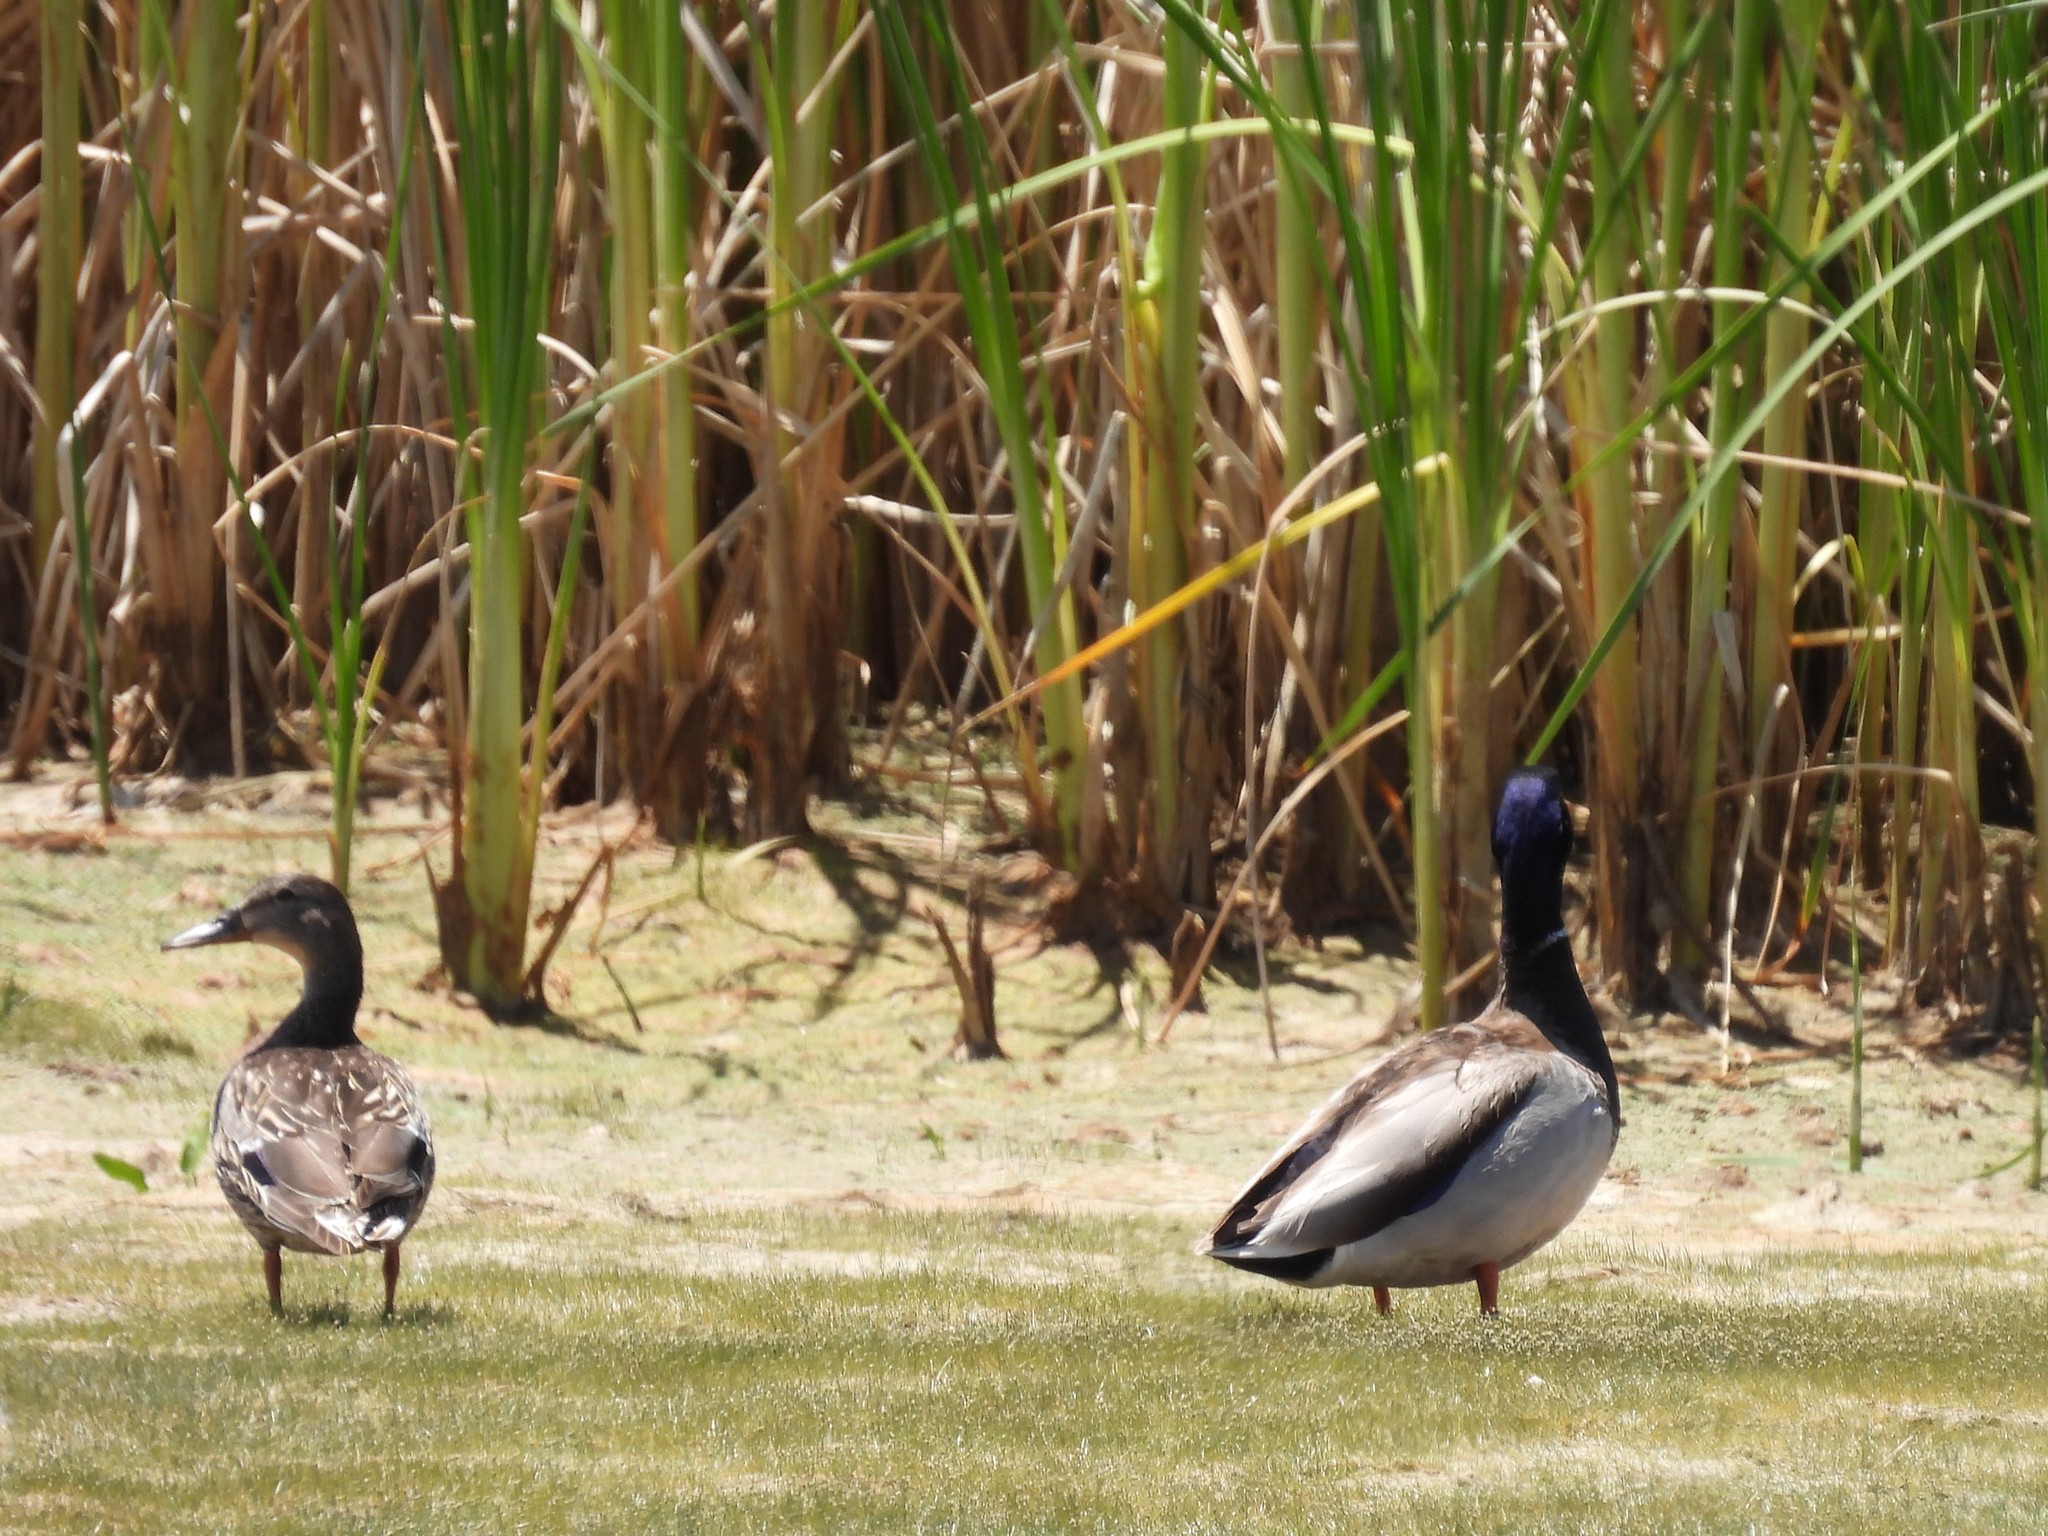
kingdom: Animalia
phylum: Chordata
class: Aves
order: Anseriformes
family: Anatidae
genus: Anas
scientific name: Anas platyrhynchos
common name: Mallard
